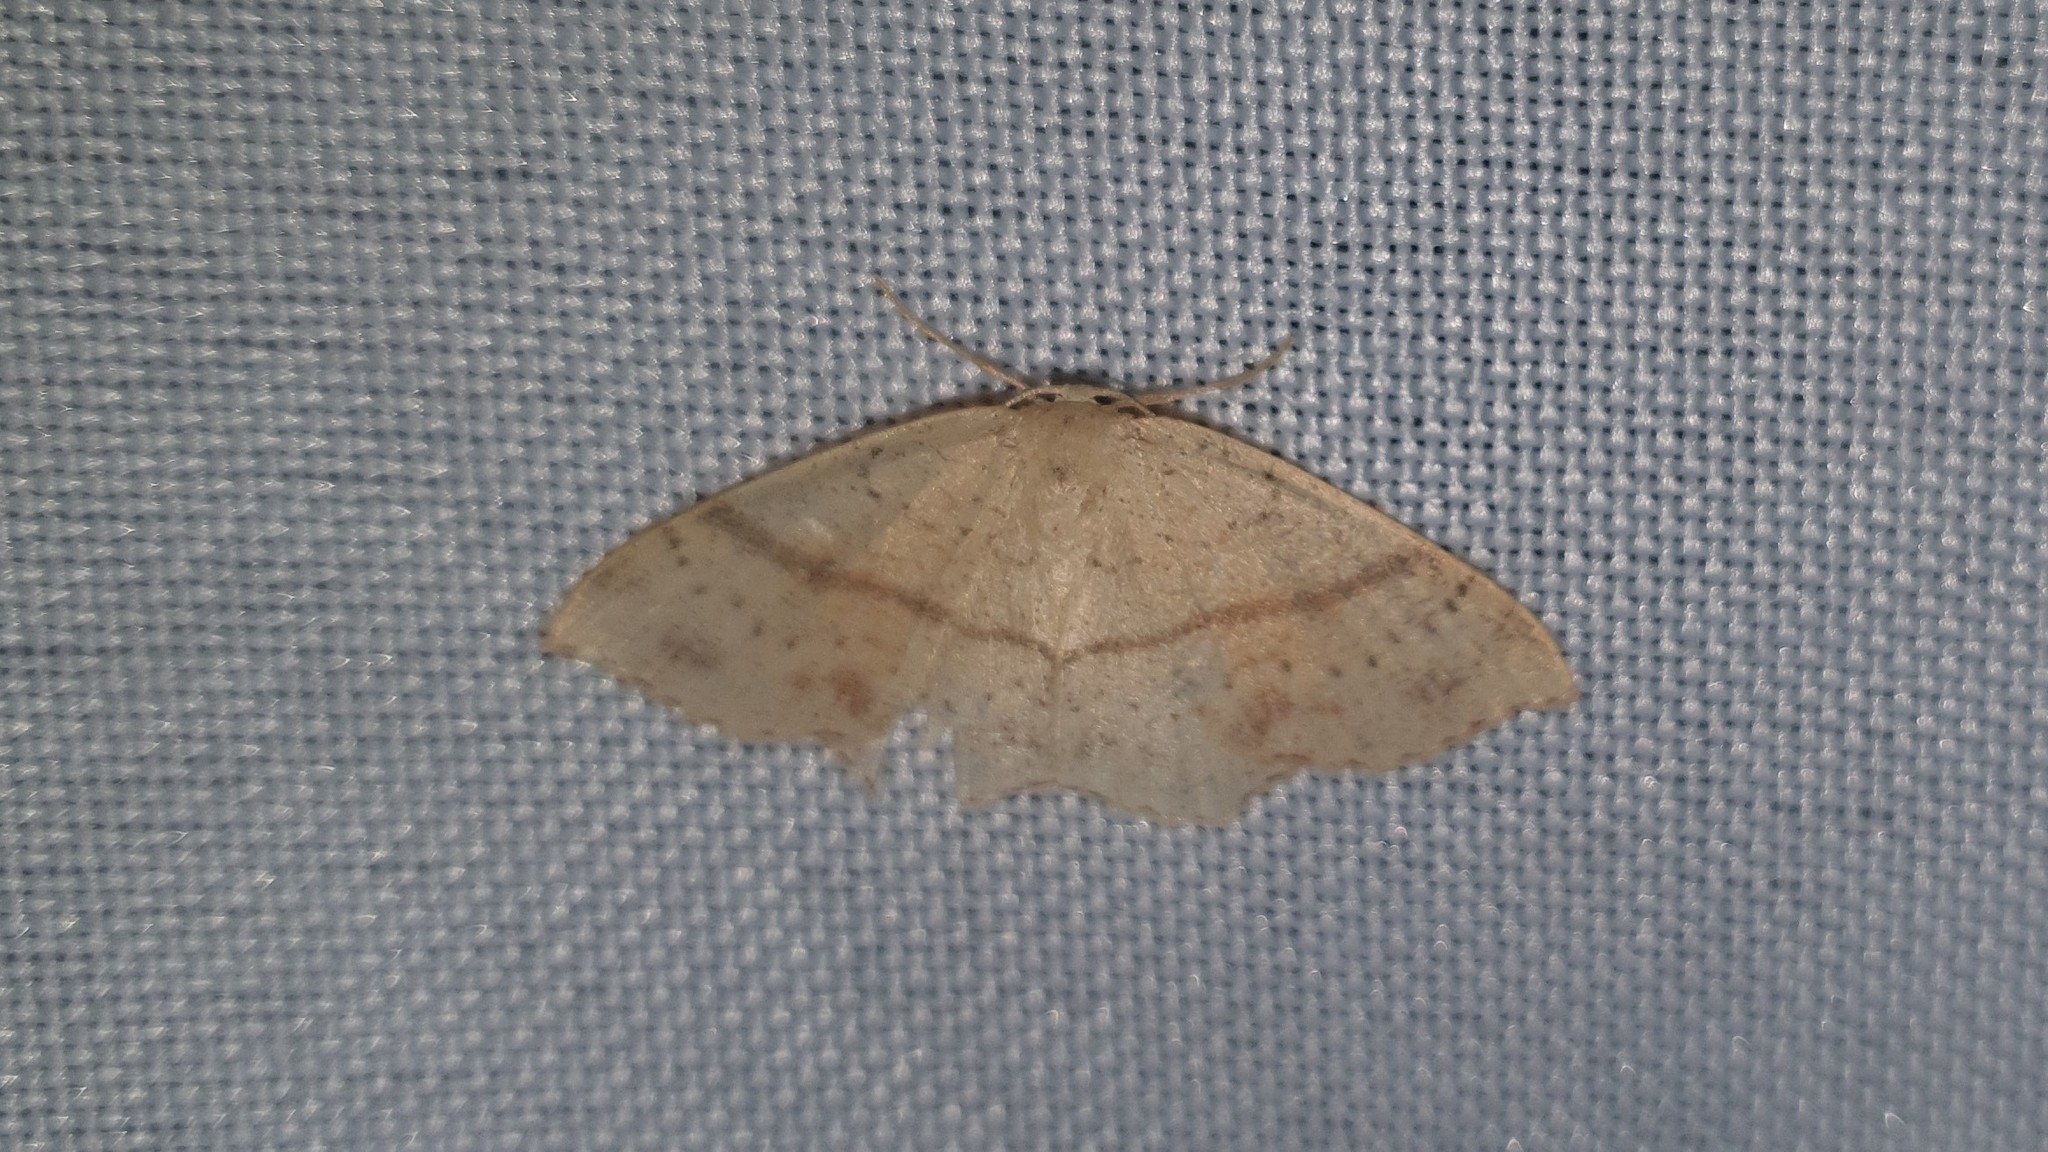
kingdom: Animalia
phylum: Arthropoda
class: Insecta
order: Lepidoptera
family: Geometridae
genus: Cyclophora
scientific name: Cyclophora punctaria
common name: Maiden's blush
